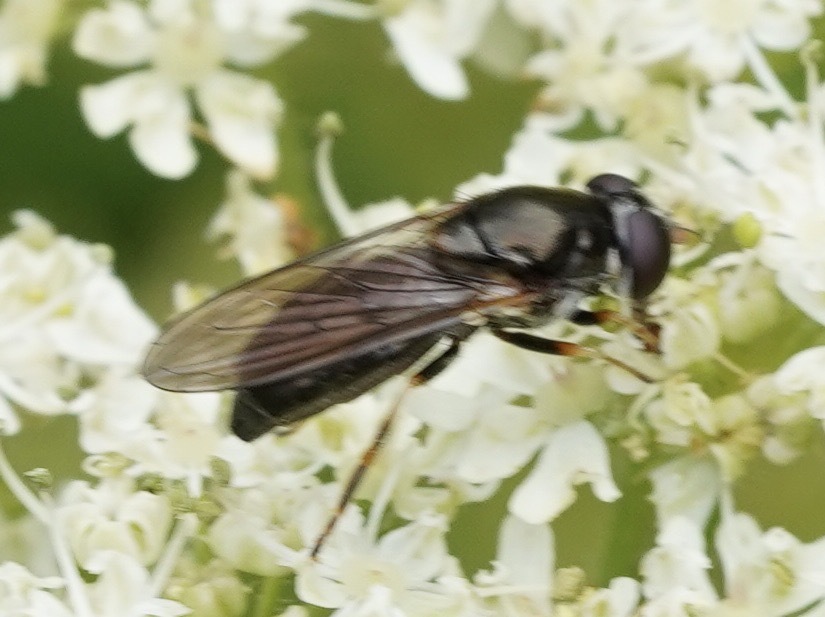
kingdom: Animalia
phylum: Arthropoda
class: Insecta
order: Diptera
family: Syrphidae
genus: Cheilosia
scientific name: Cheilosia pagana
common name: Hover fly
